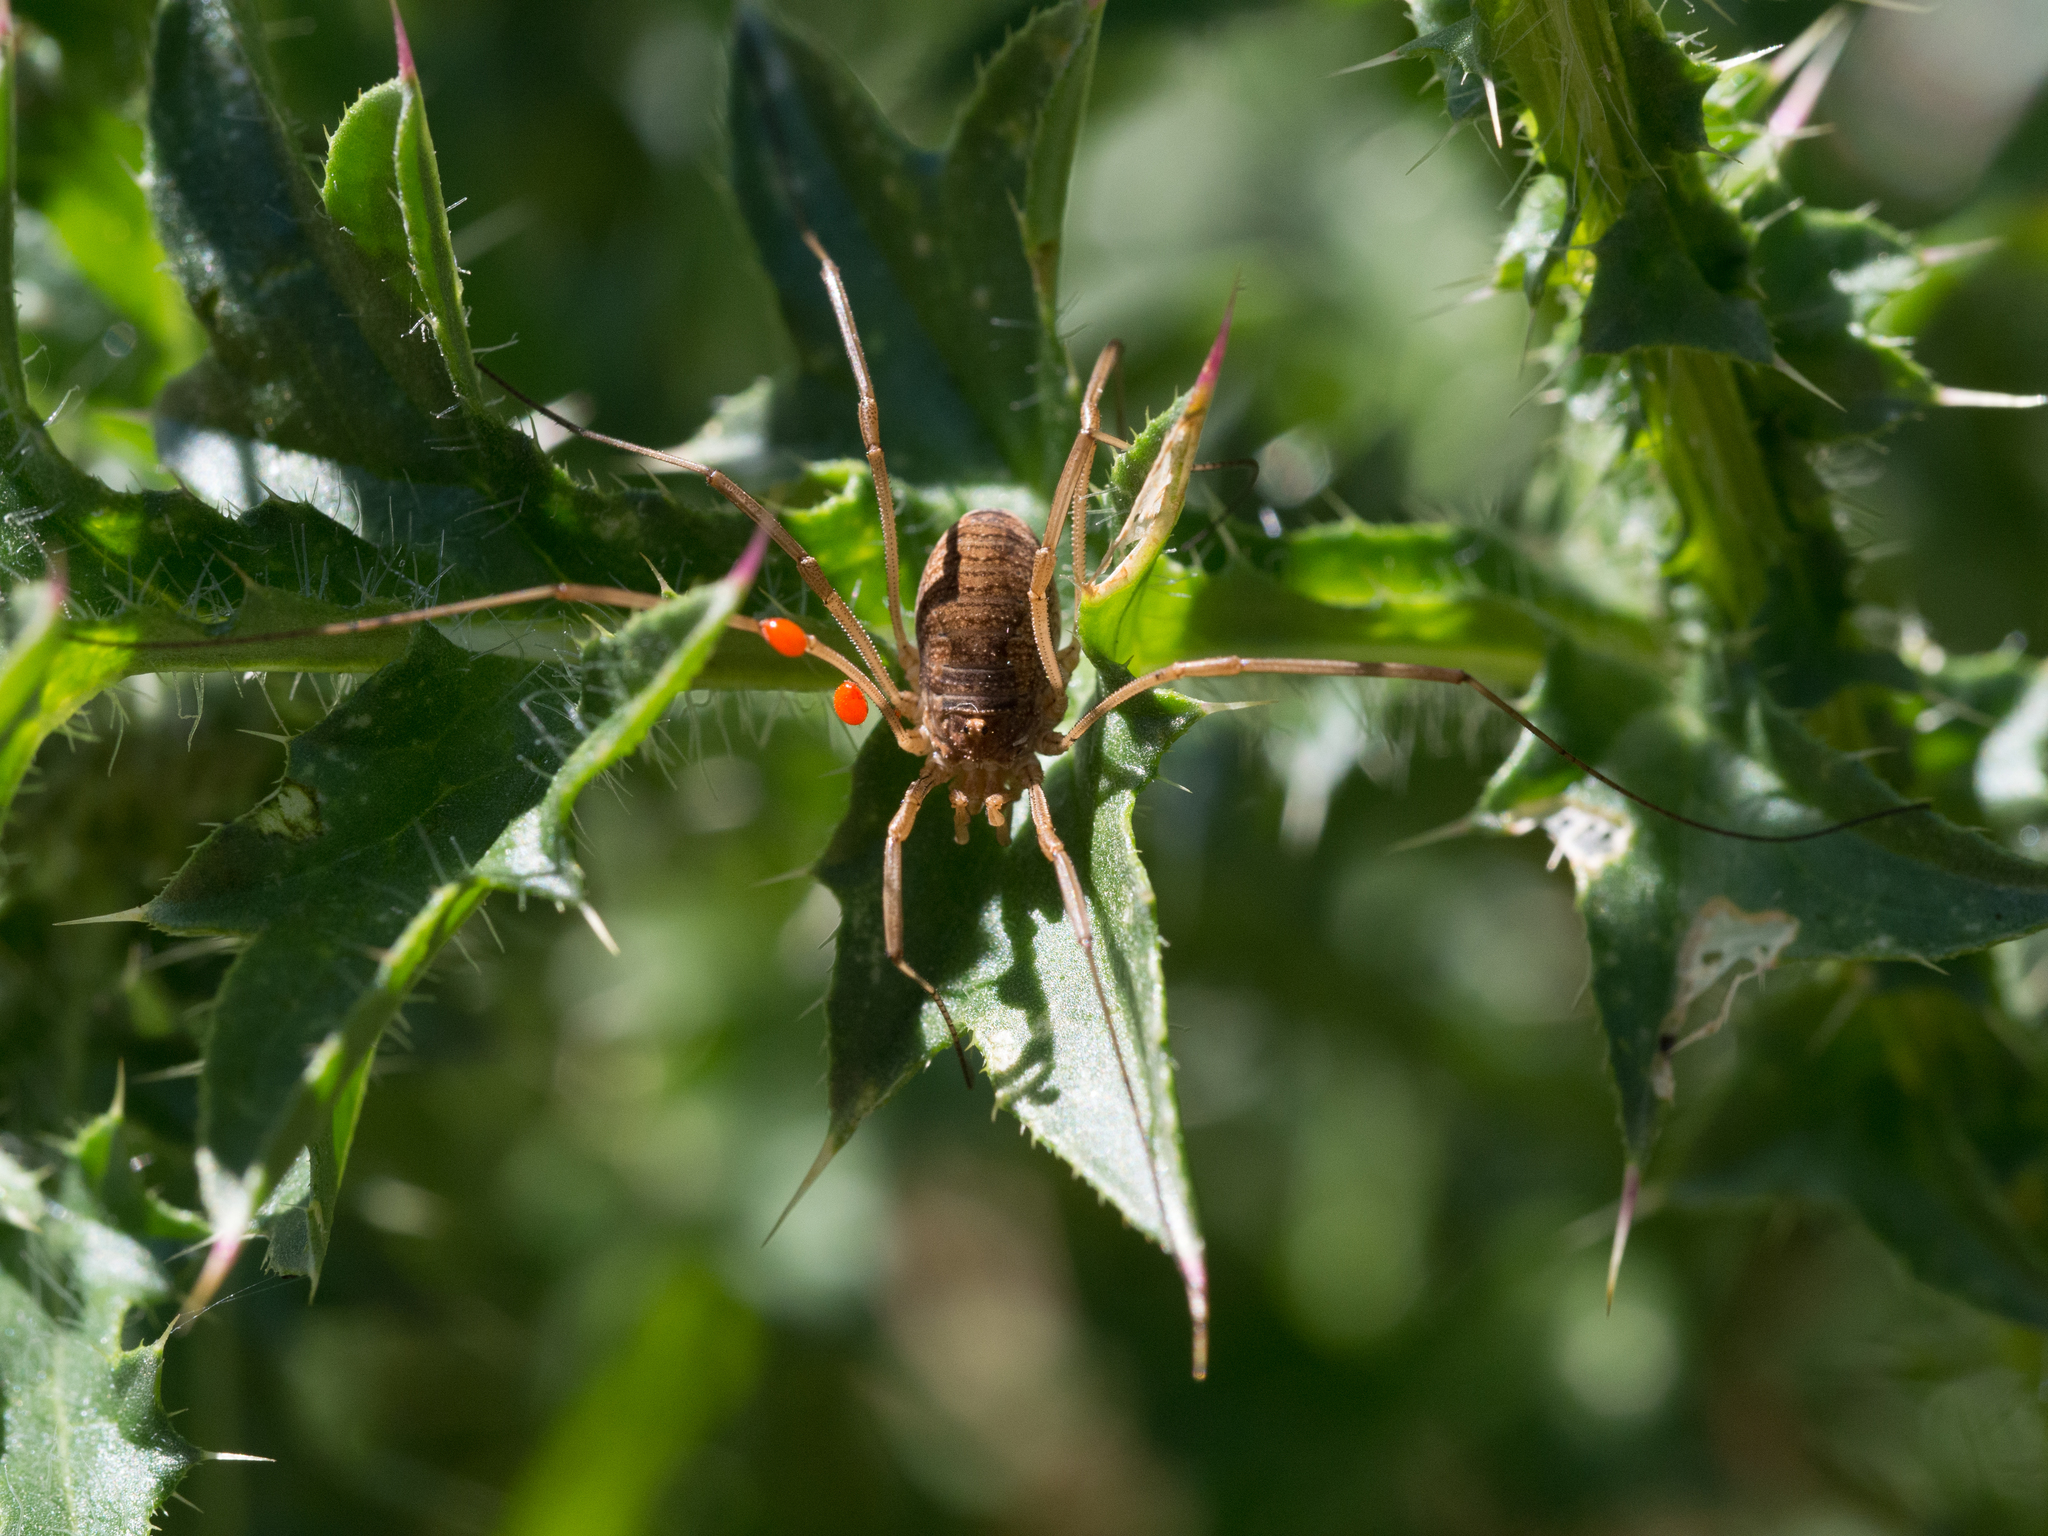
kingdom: Animalia
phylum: Arthropoda
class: Arachnida
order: Opiliones
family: Phalangiidae
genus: Phalangium
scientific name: Phalangium opilio
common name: Daddy longleg
